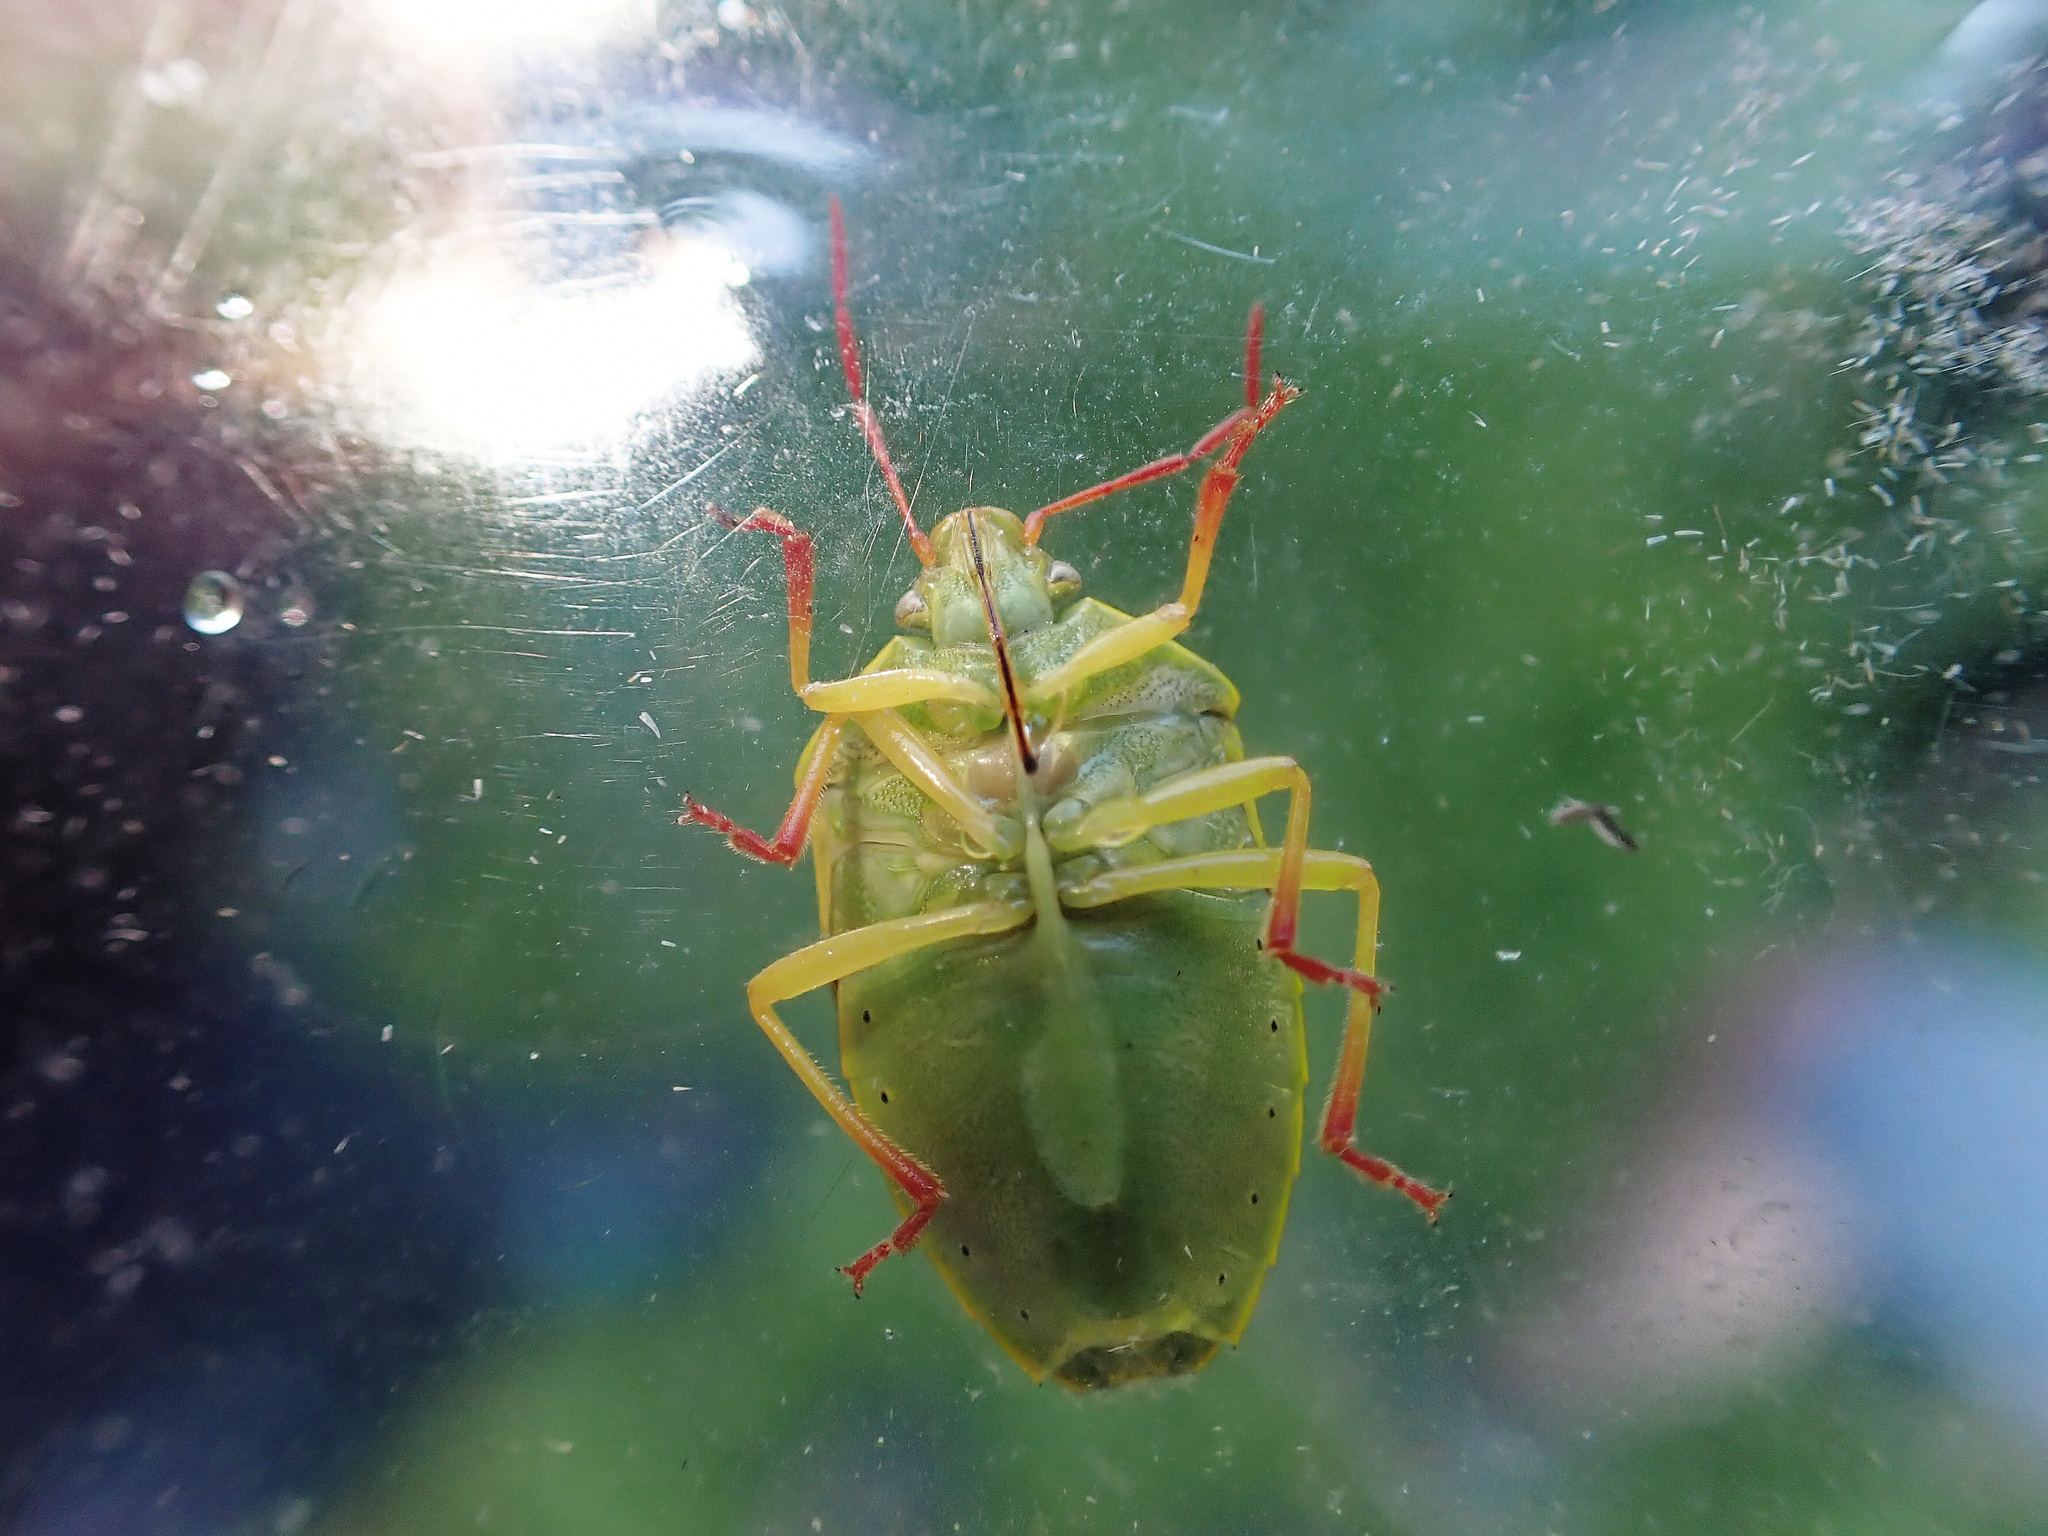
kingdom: Animalia
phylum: Arthropoda
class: Insecta
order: Hemiptera
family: Pentatomidae
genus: Piezodorus
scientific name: Piezodorus lituratus
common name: Stink bug
